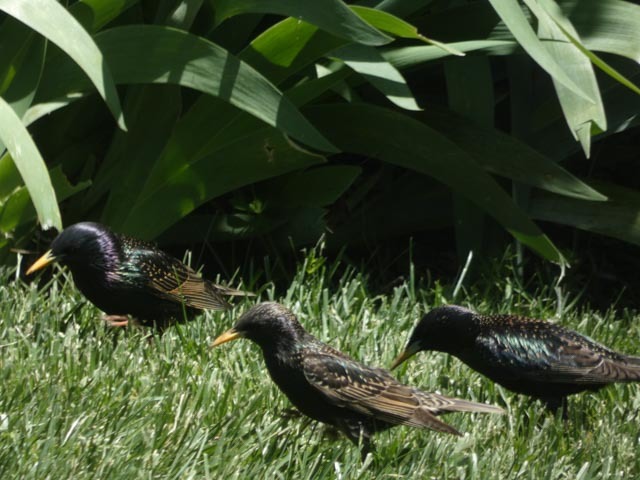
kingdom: Animalia
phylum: Chordata
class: Aves
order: Passeriformes
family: Sturnidae
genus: Sturnus
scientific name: Sturnus vulgaris
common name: Common starling
